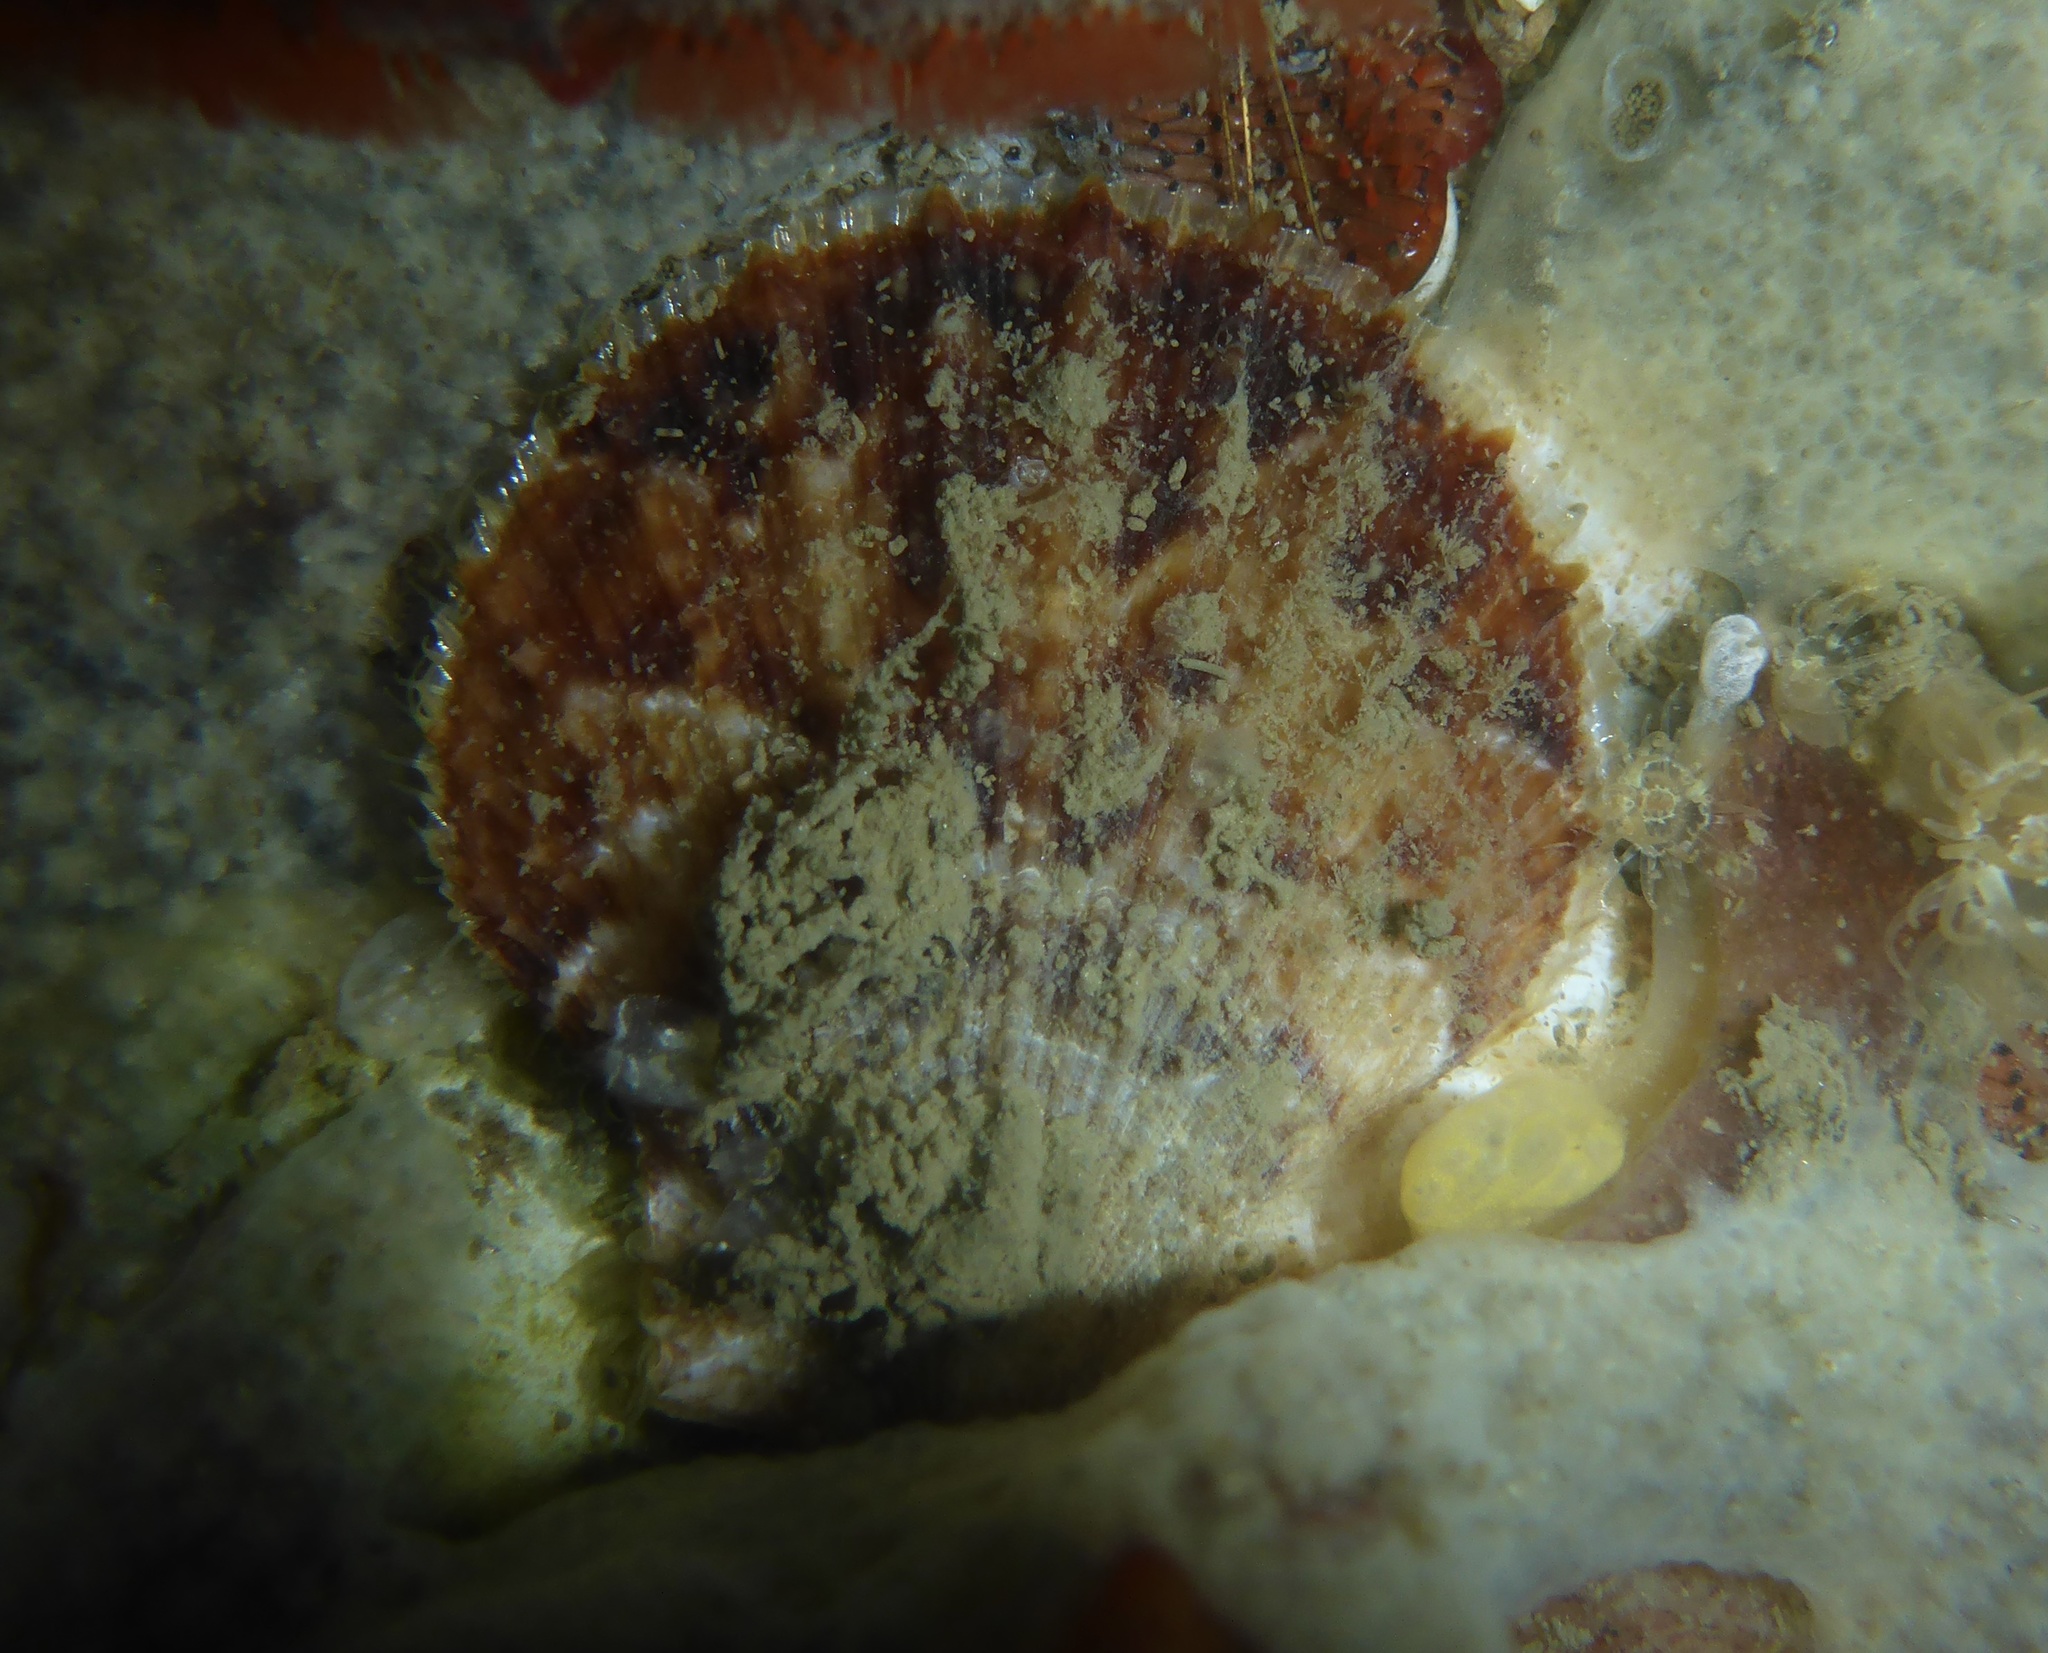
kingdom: Animalia
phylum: Mollusca
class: Bivalvia
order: Pectinida
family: Pectinidae
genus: Crassadoma
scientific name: Crassadoma gigantea
